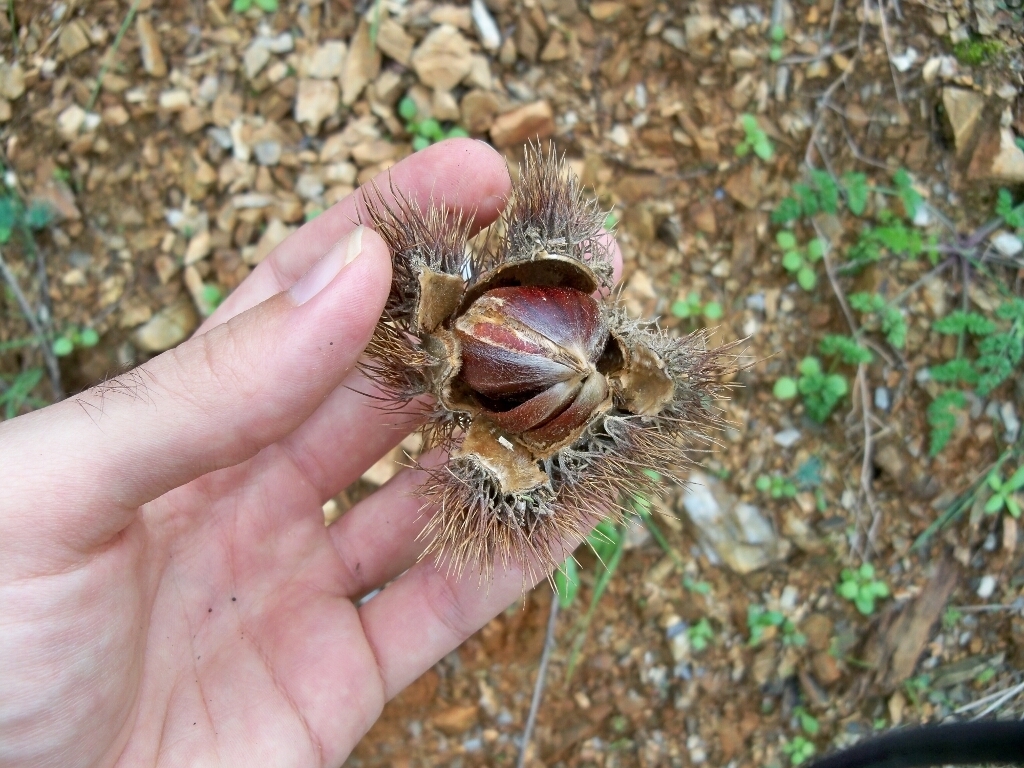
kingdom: Plantae
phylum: Tracheophyta
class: Magnoliopsida
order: Fagales
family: Fagaceae
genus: Castanea
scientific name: Castanea sativa
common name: Sweet chestnut
